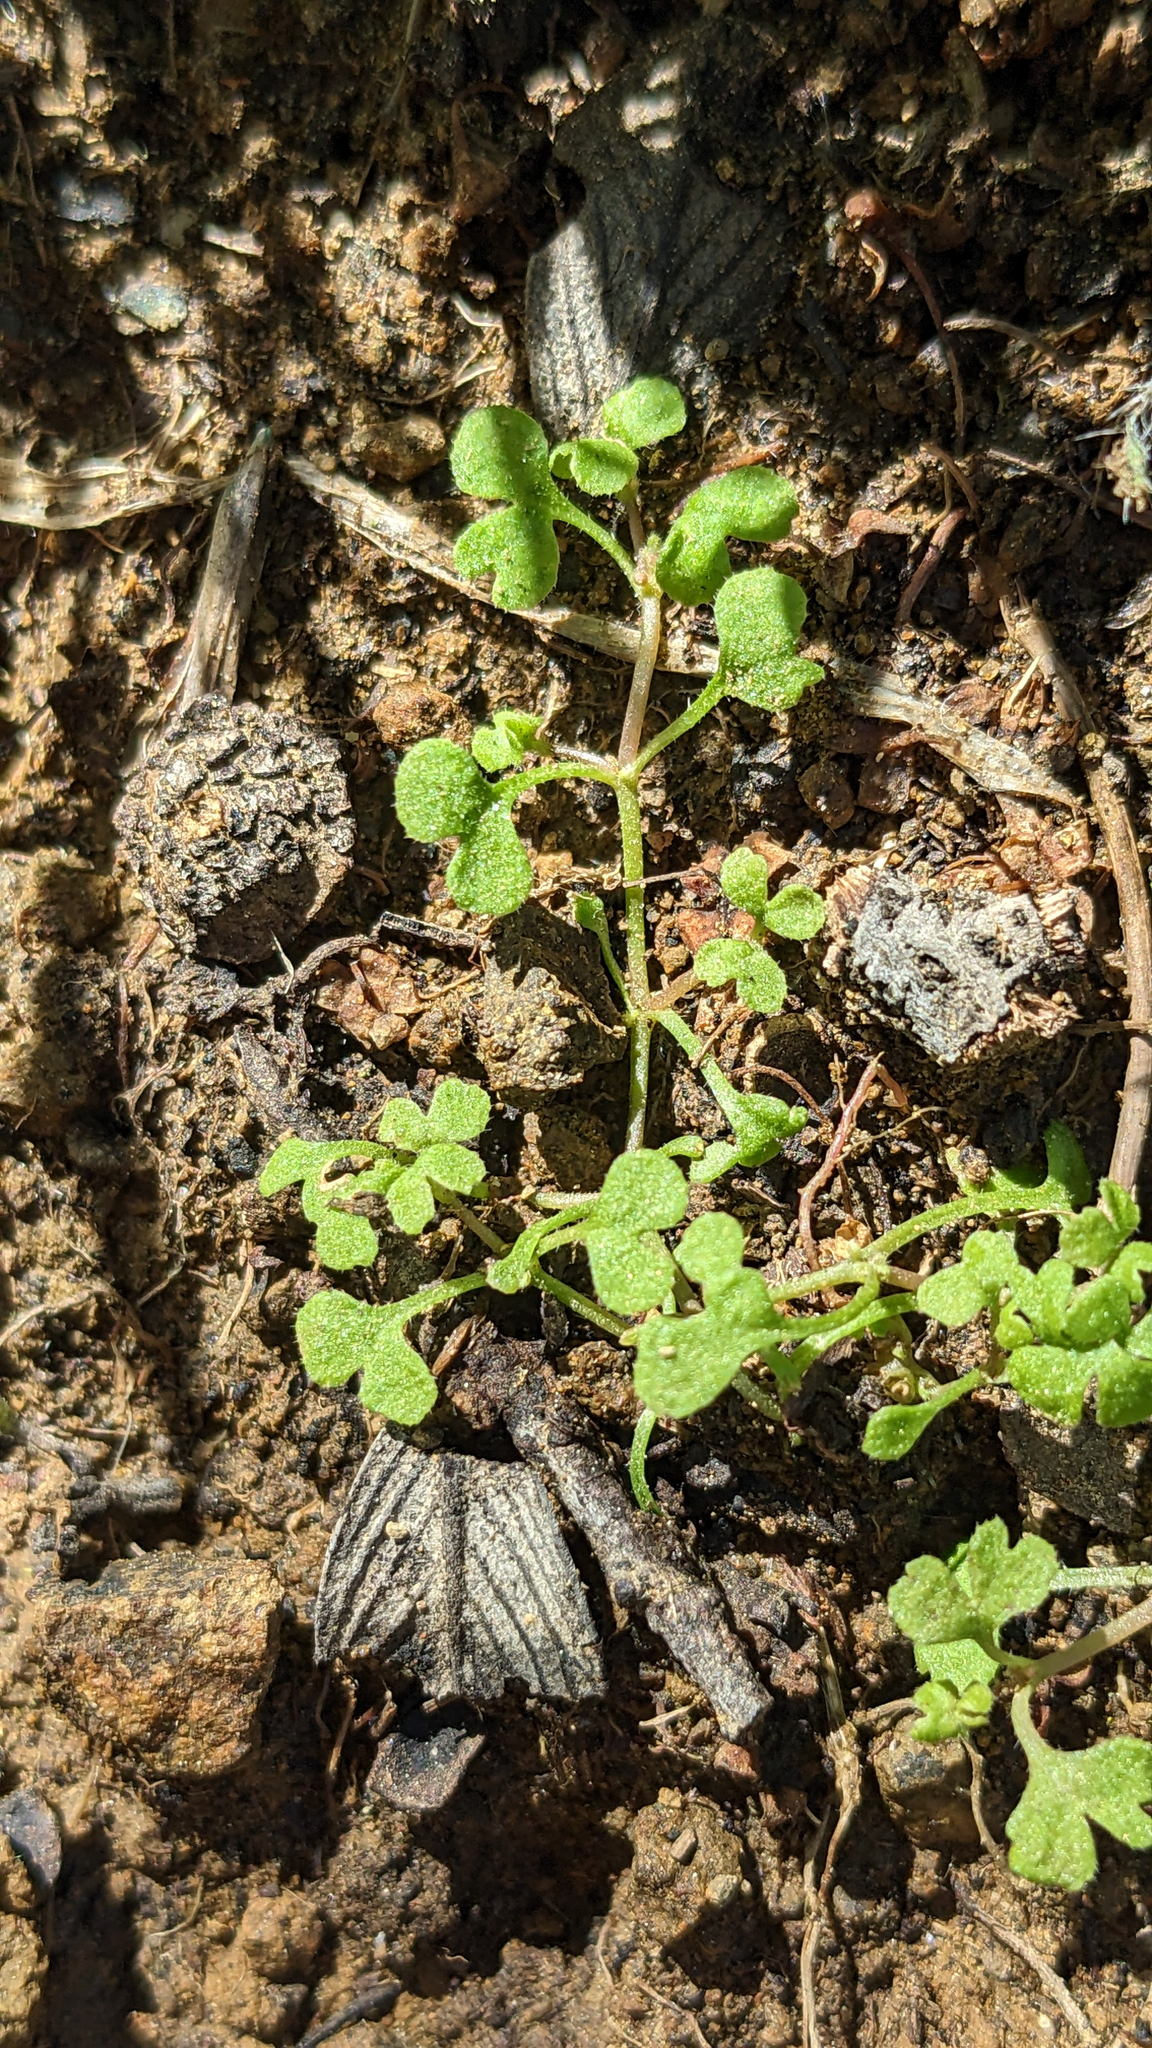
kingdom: Plantae
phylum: Tracheophyta
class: Magnoliopsida
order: Caryophyllales
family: Polygonaceae
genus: Pterostegia
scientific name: Pterostegia drymarioides
